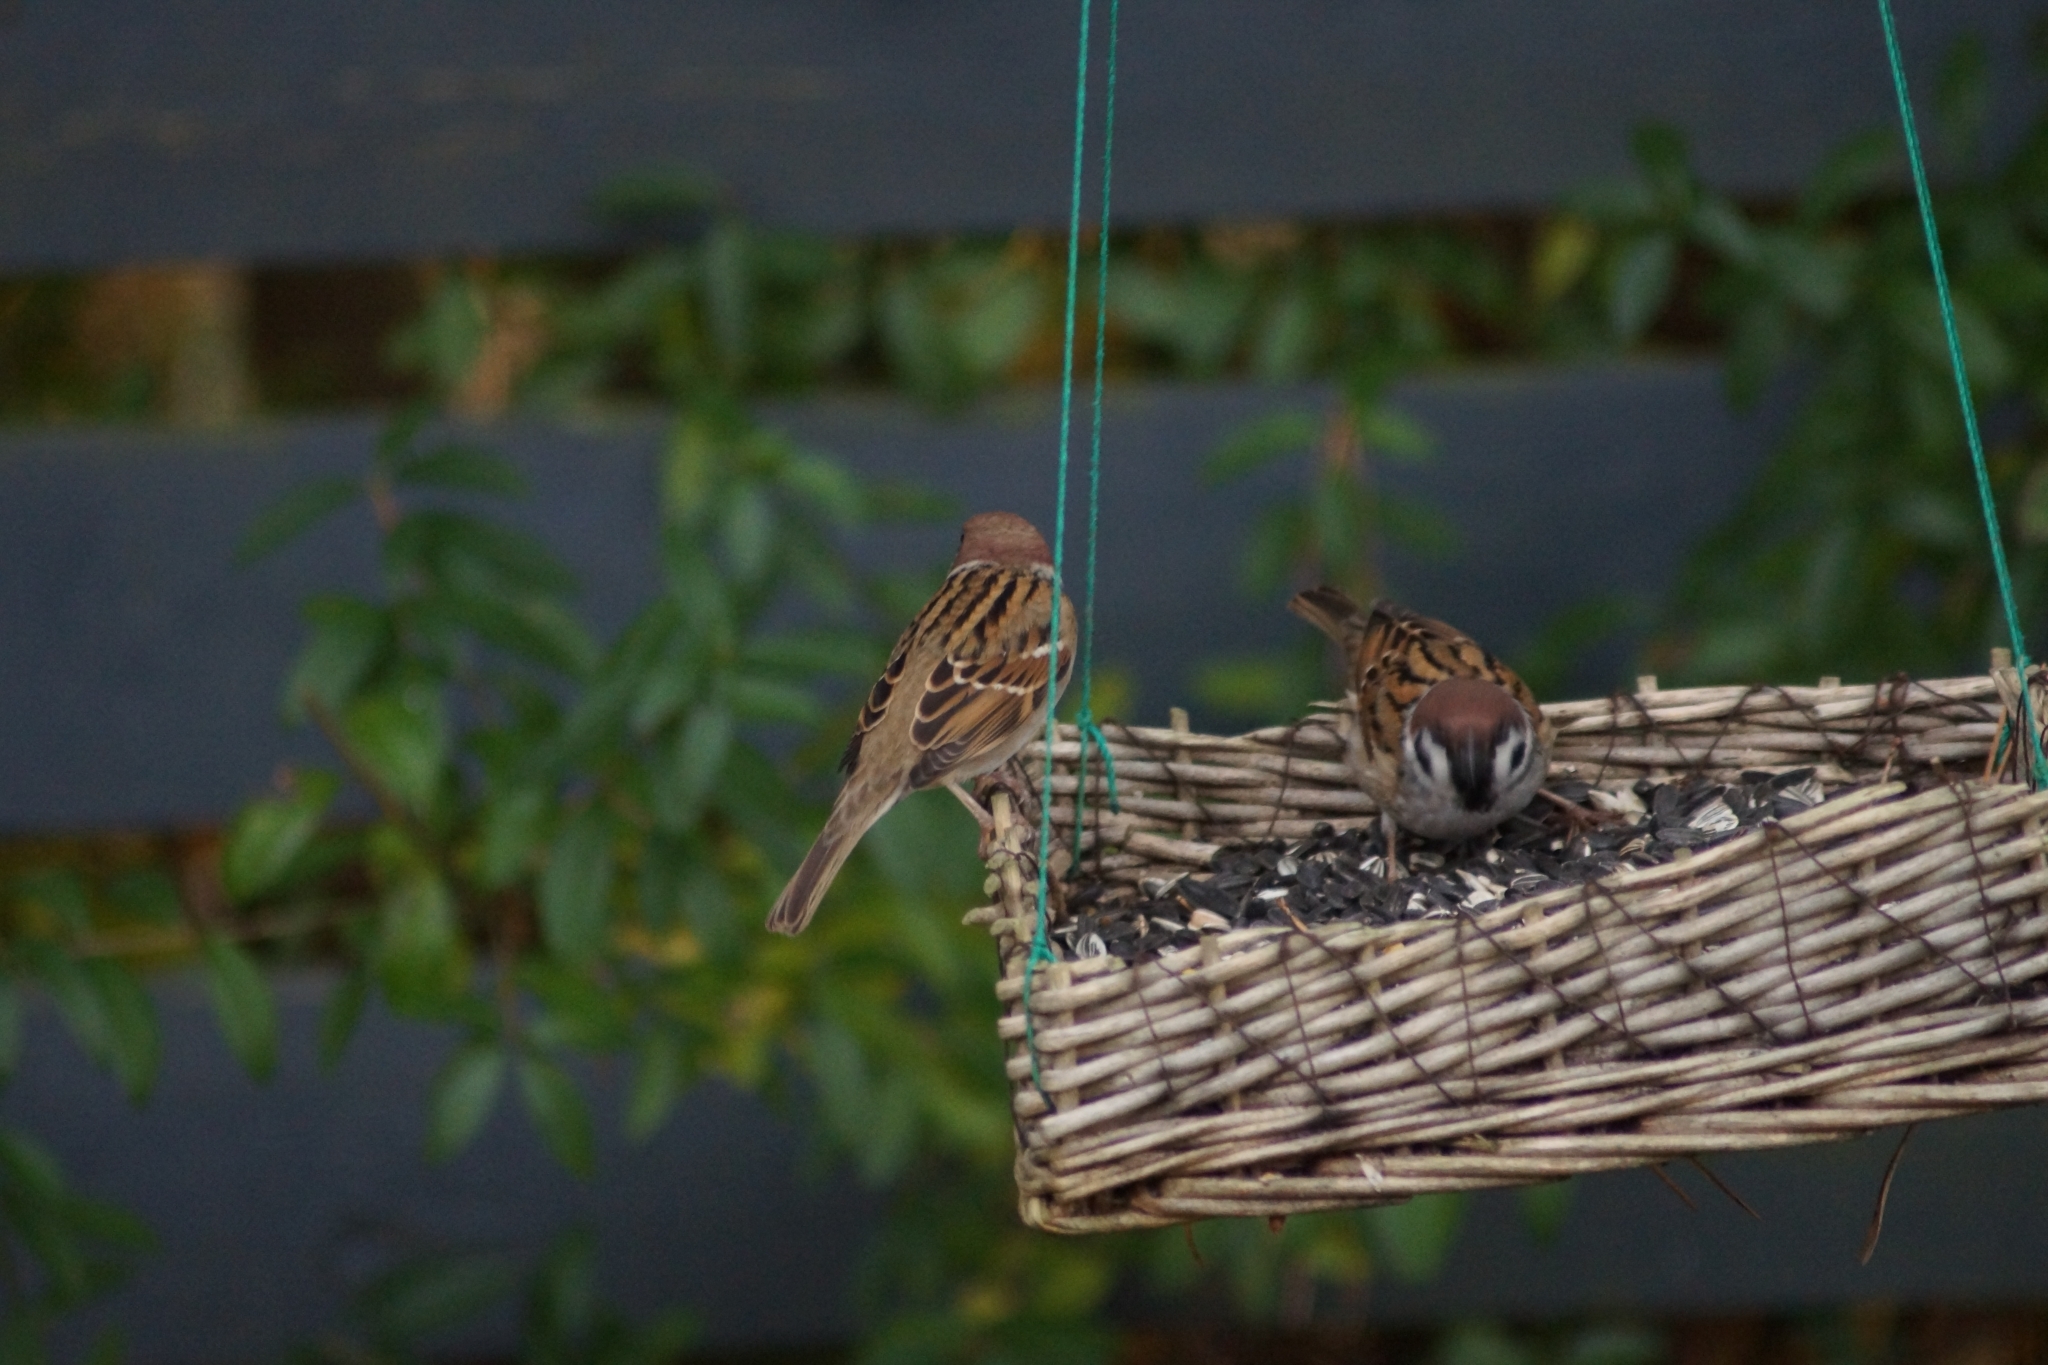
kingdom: Animalia
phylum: Chordata
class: Aves
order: Passeriformes
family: Passeridae
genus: Passer
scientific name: Passer montanus
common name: Eurasian tree sparrow
